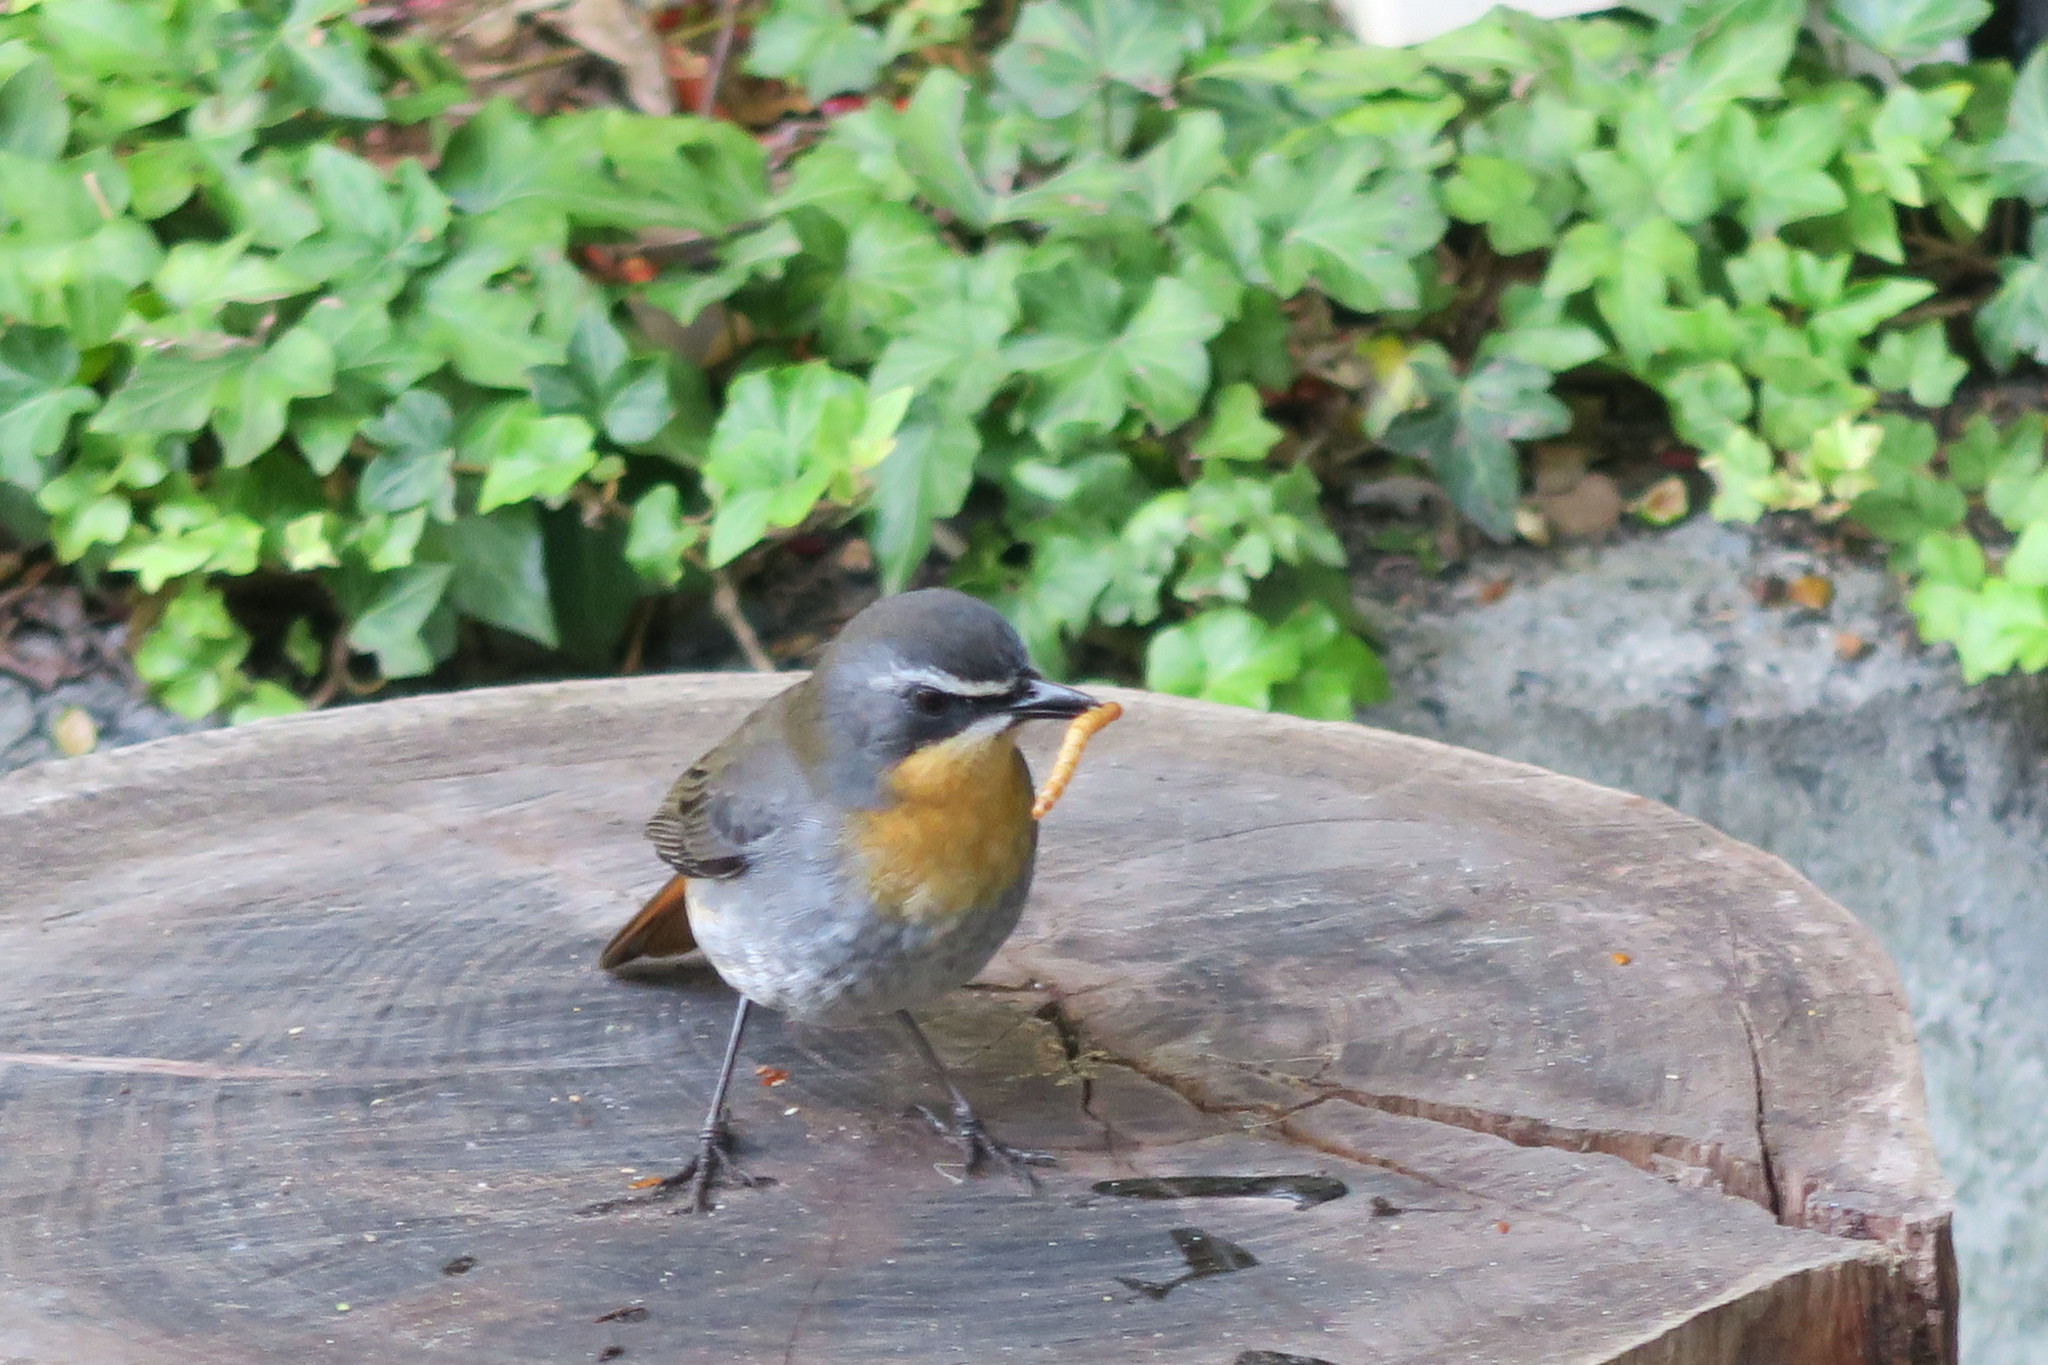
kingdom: Animalia
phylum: Chordata
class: Aves
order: Passeriformes
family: Muscicapidae
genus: Cossypha
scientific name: Cossypha caffra
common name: Cape robin-chat
